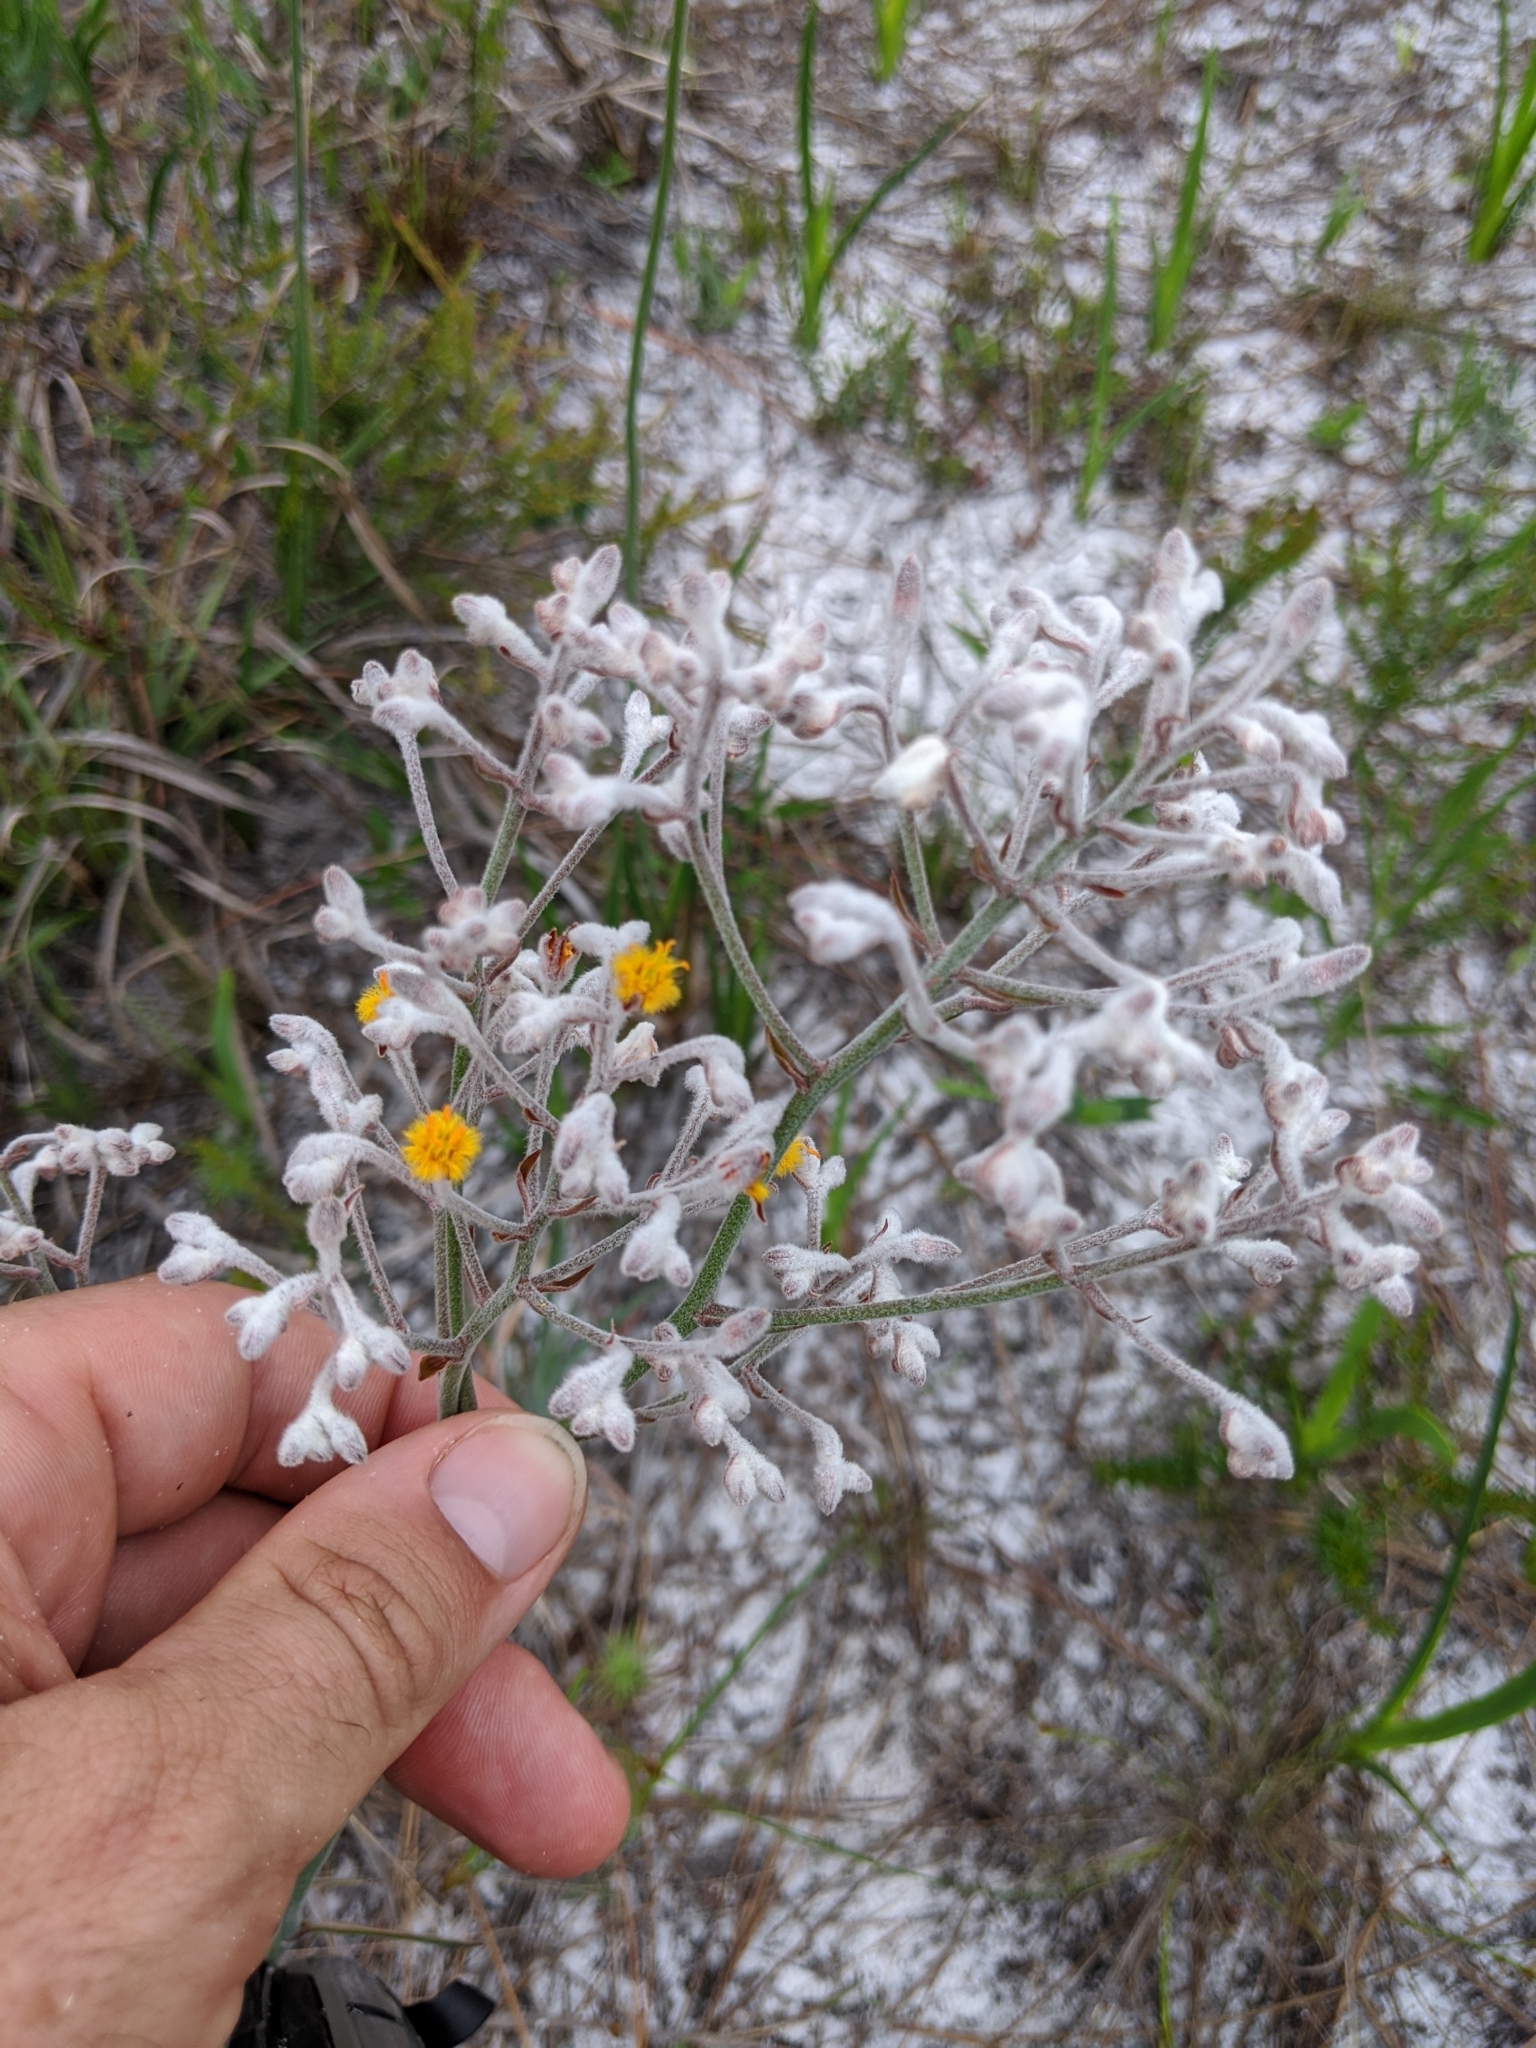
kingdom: Plantae
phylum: Tracheophyta
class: Liliopsida
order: Dioscoreales
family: Nartheciaceae
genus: Lophiola
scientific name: Lophiola aurea
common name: Golden-crest
